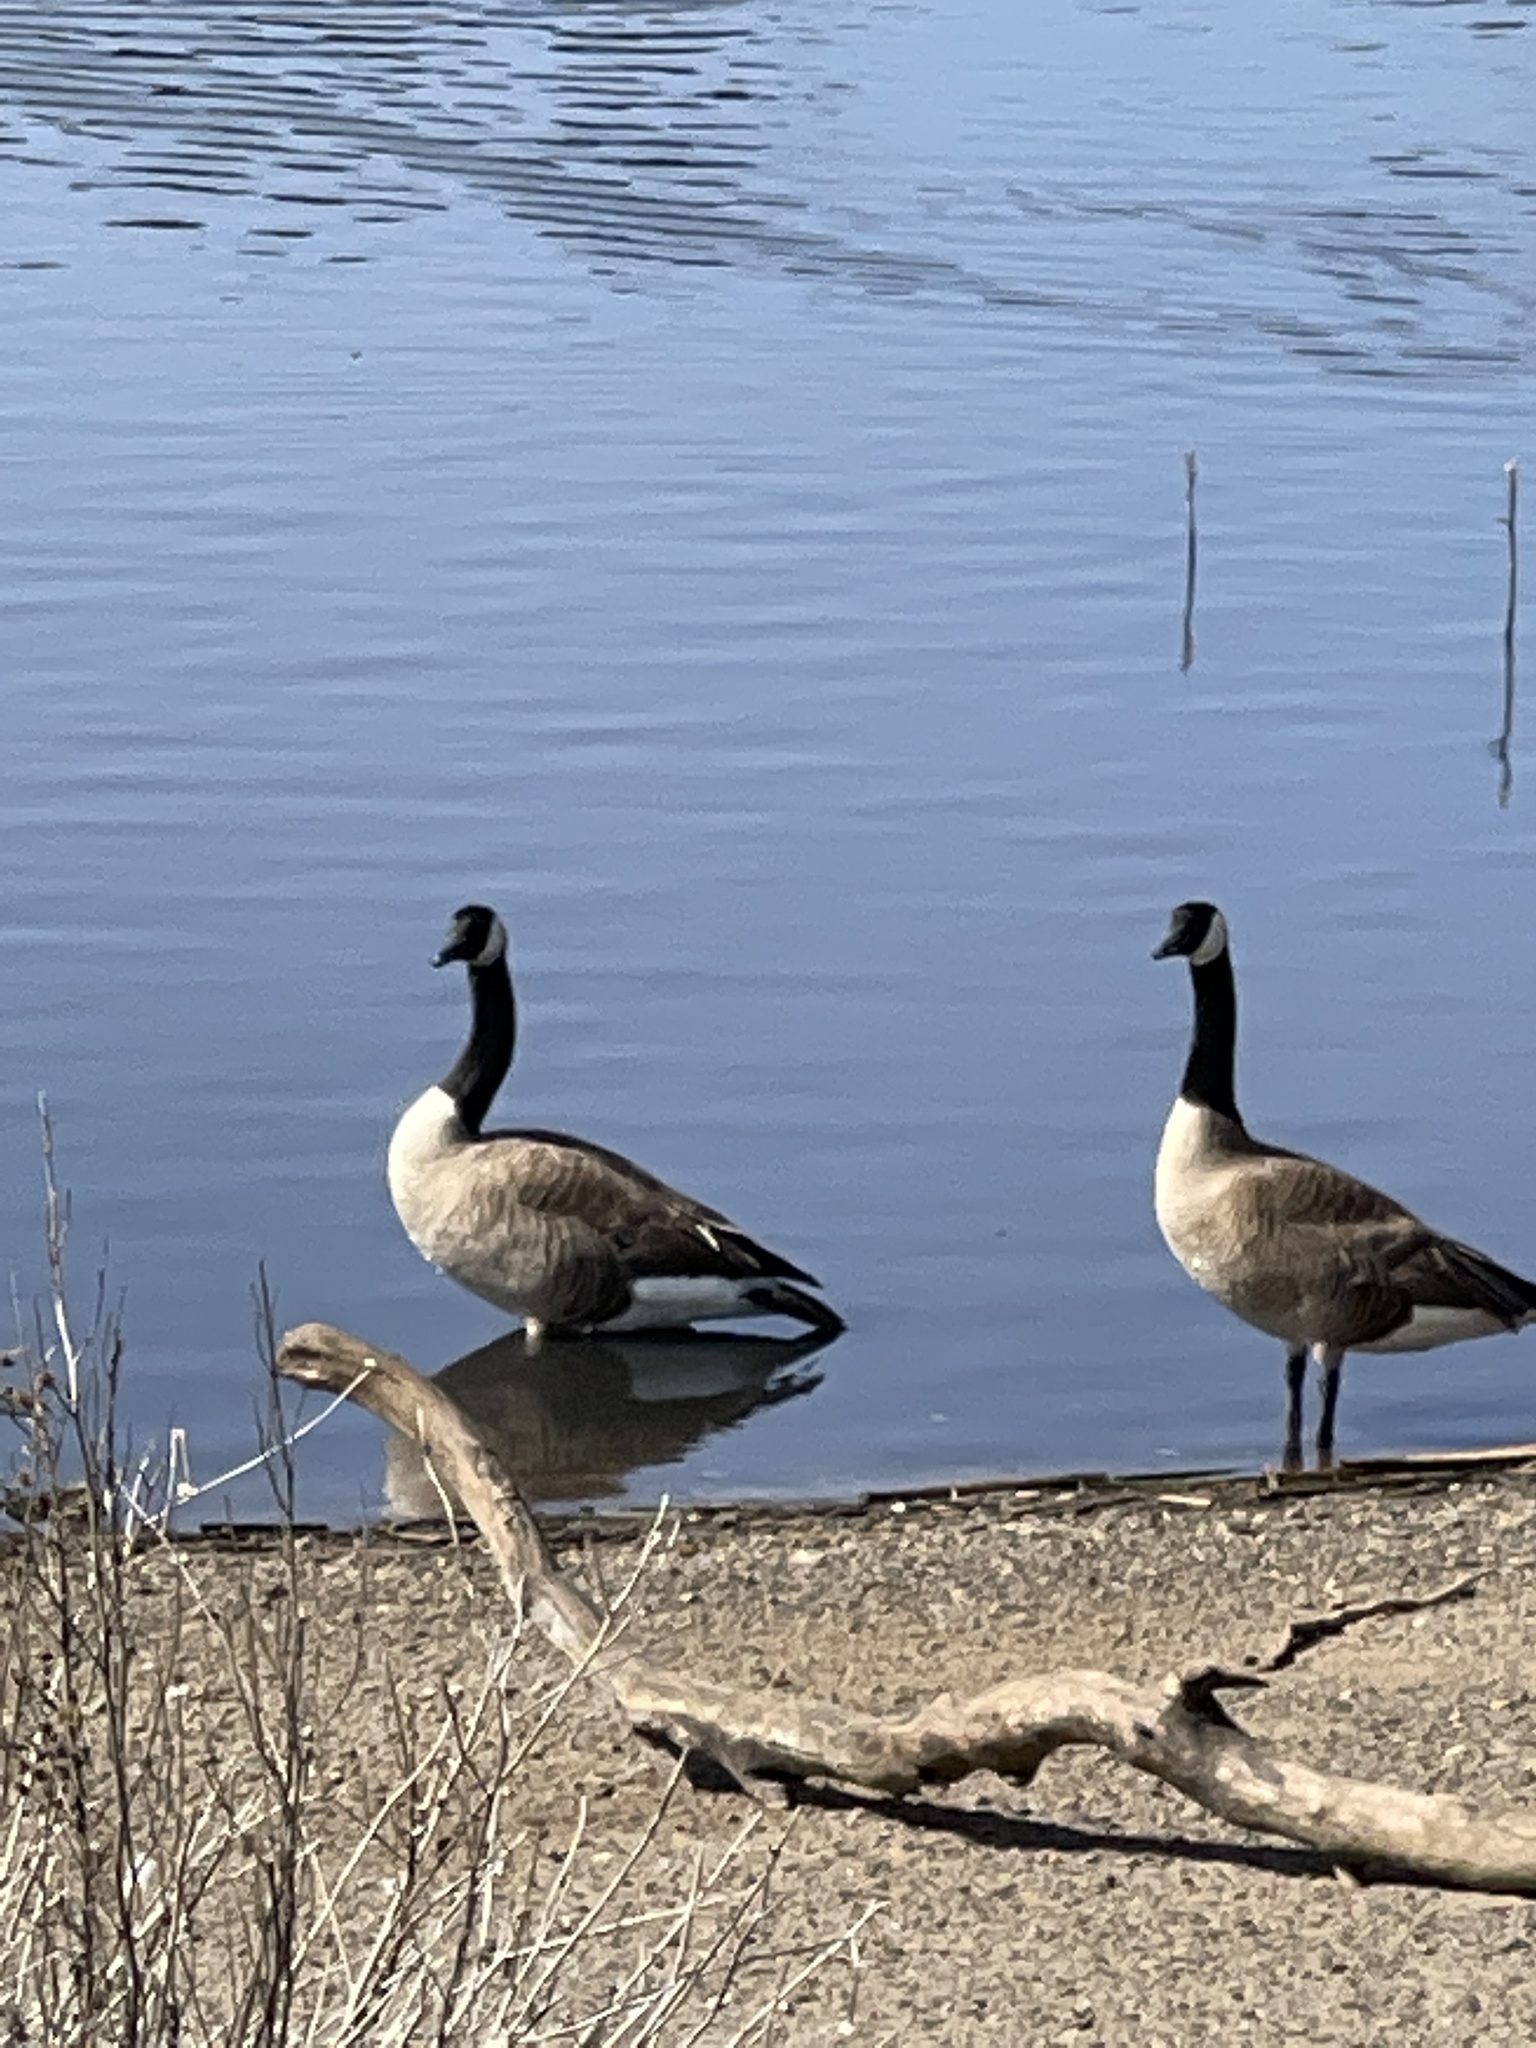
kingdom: Animalia
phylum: Chordata
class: Aves
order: Anseriformes
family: Anatidae
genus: Branta
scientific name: Branta canadensis
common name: Canada goose
